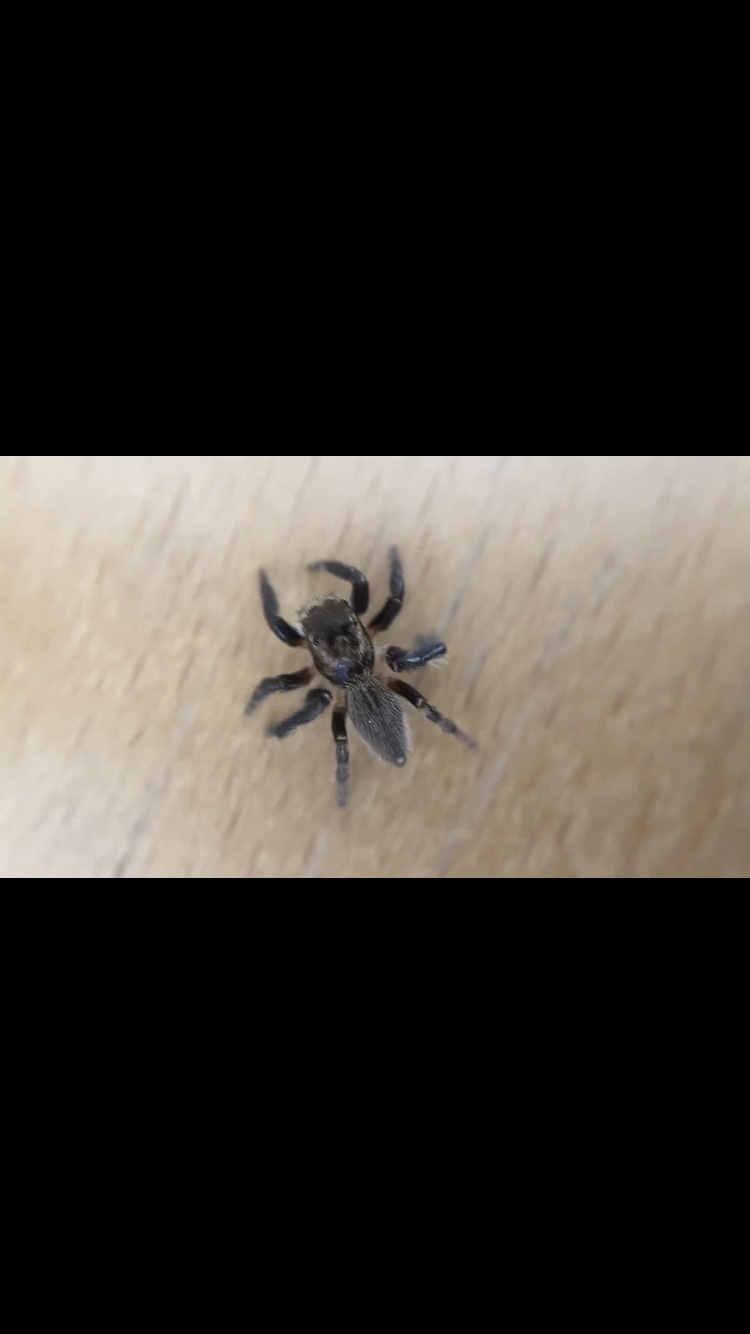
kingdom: Animalia
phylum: Arthropoda
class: Arachnida
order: Araneae
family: Salticidae
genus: Maratus
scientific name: Maratus griseus
